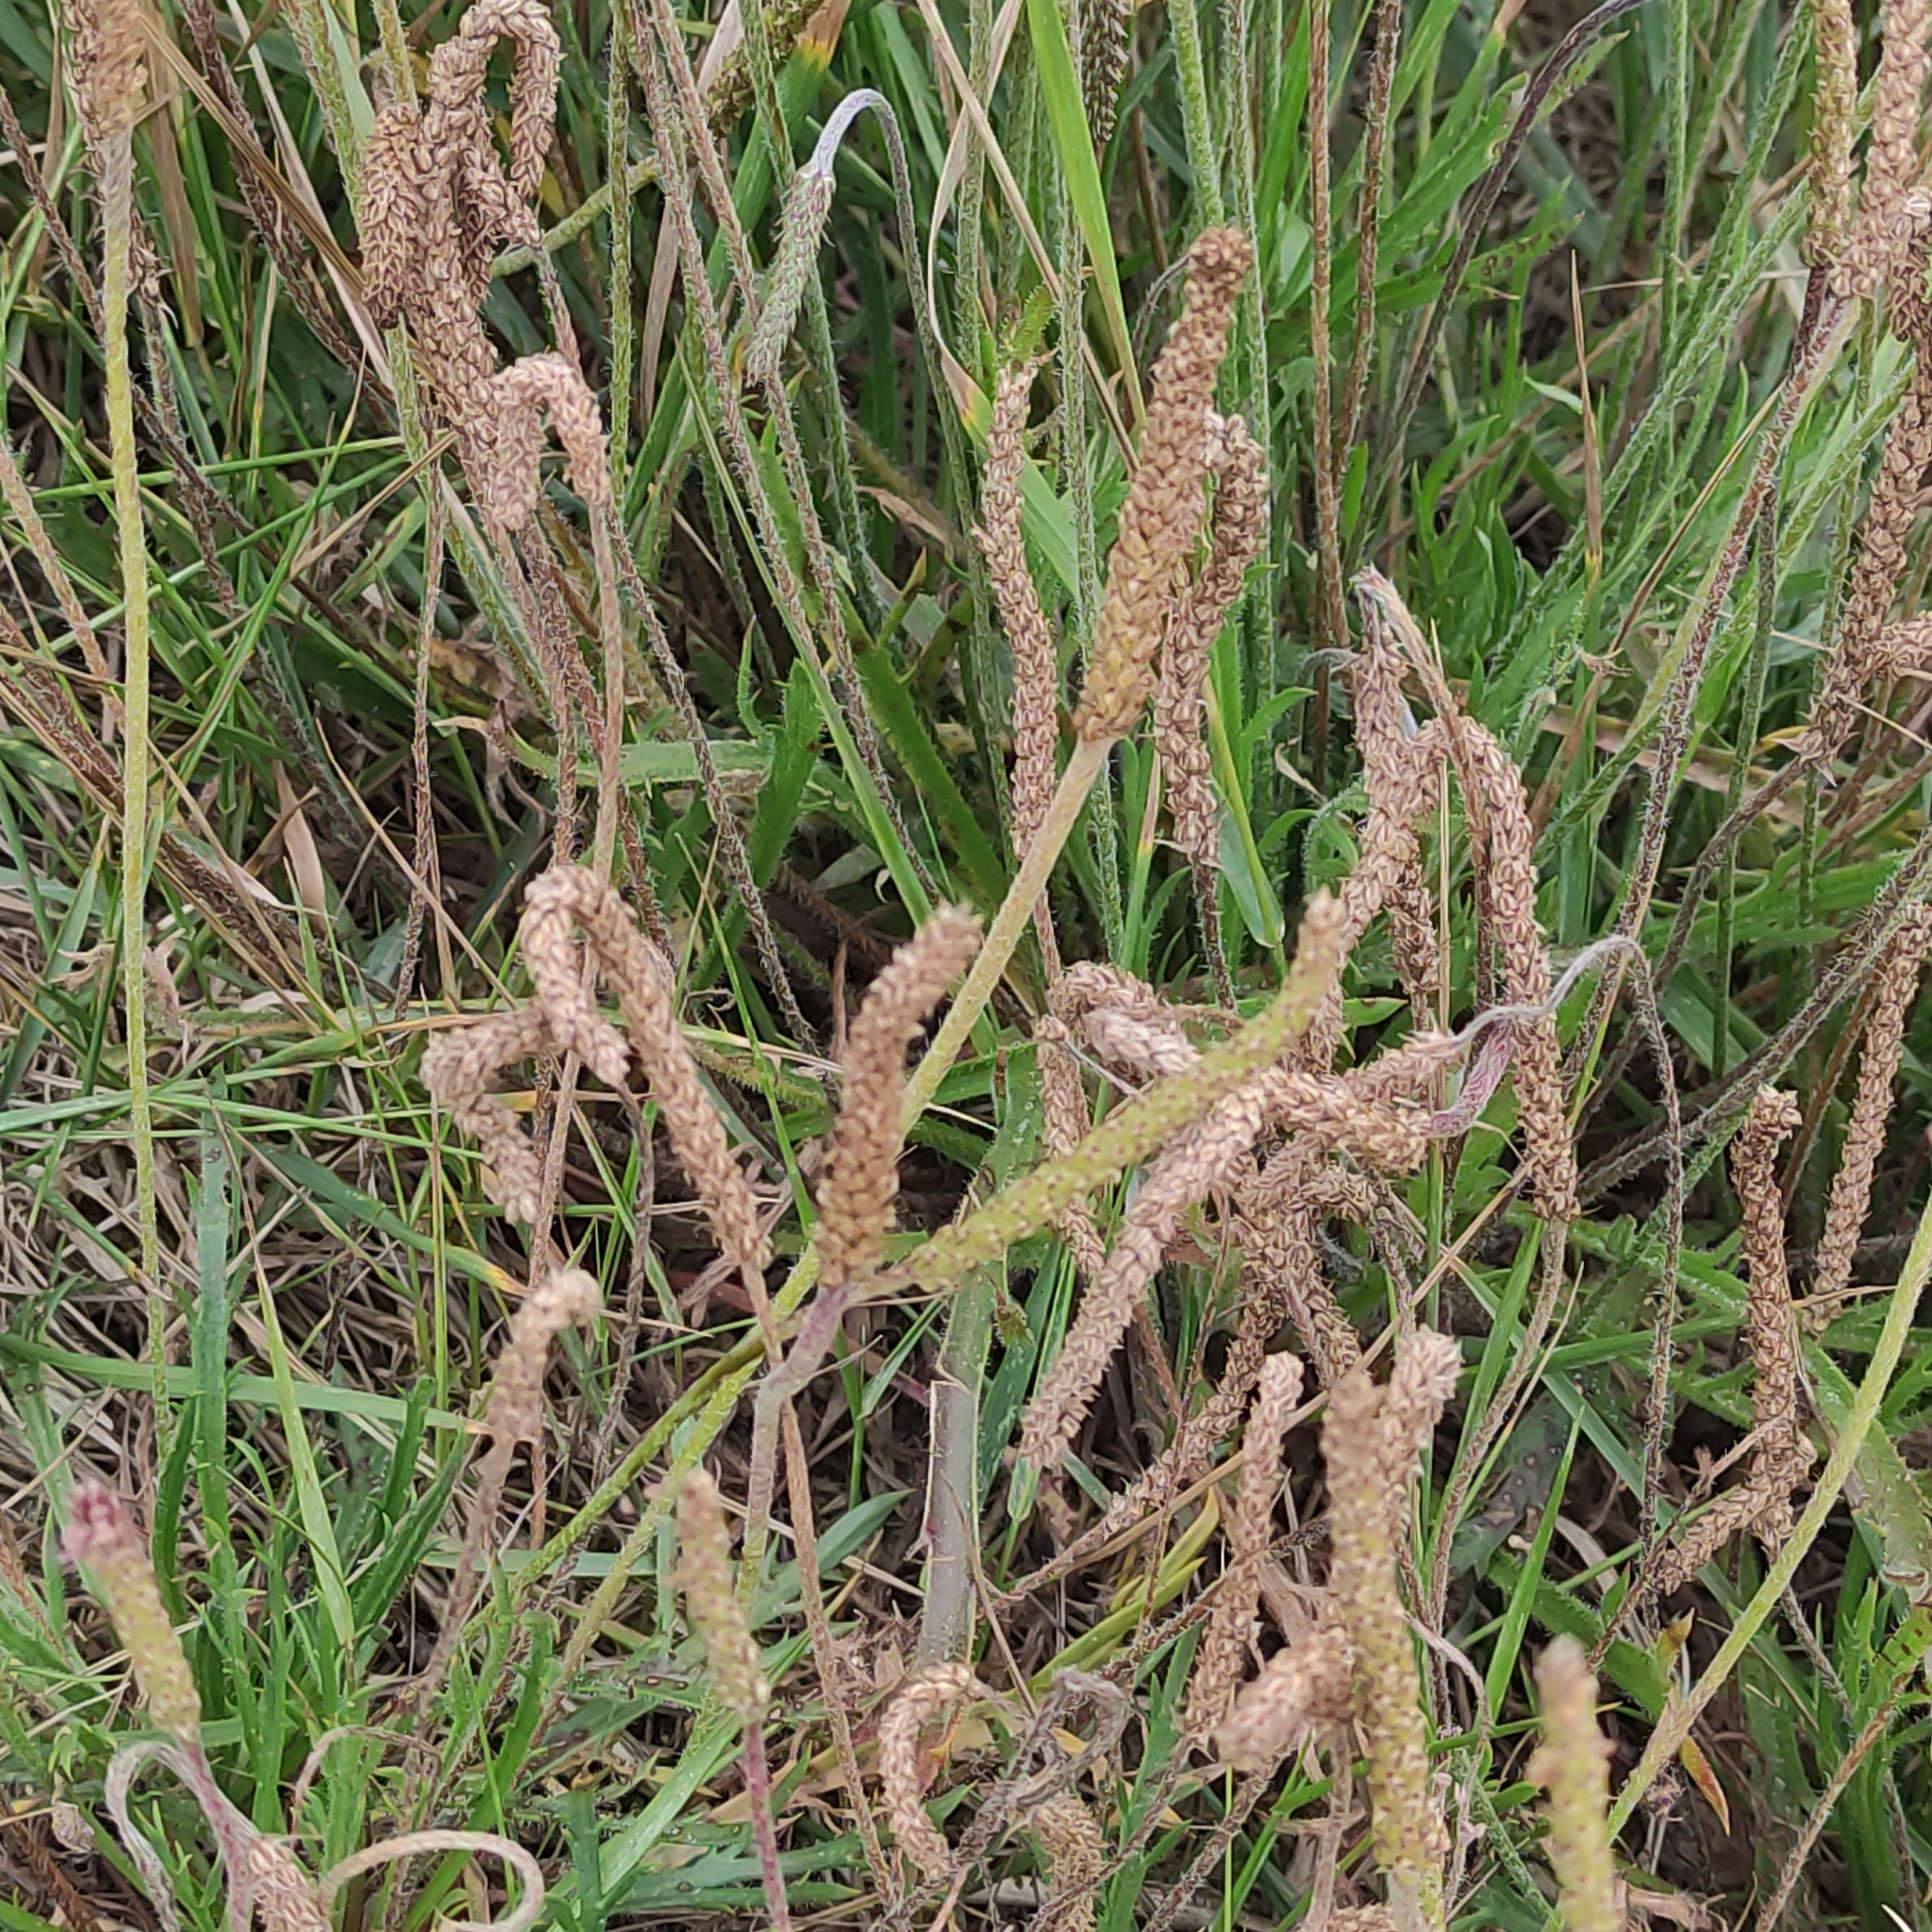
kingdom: Plantae
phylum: Tracheophyta
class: Magnoliopsida
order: Lamiales
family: Plantaginaceae
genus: Plantago
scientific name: Plantago coronopus
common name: Buck's-horn plantain
